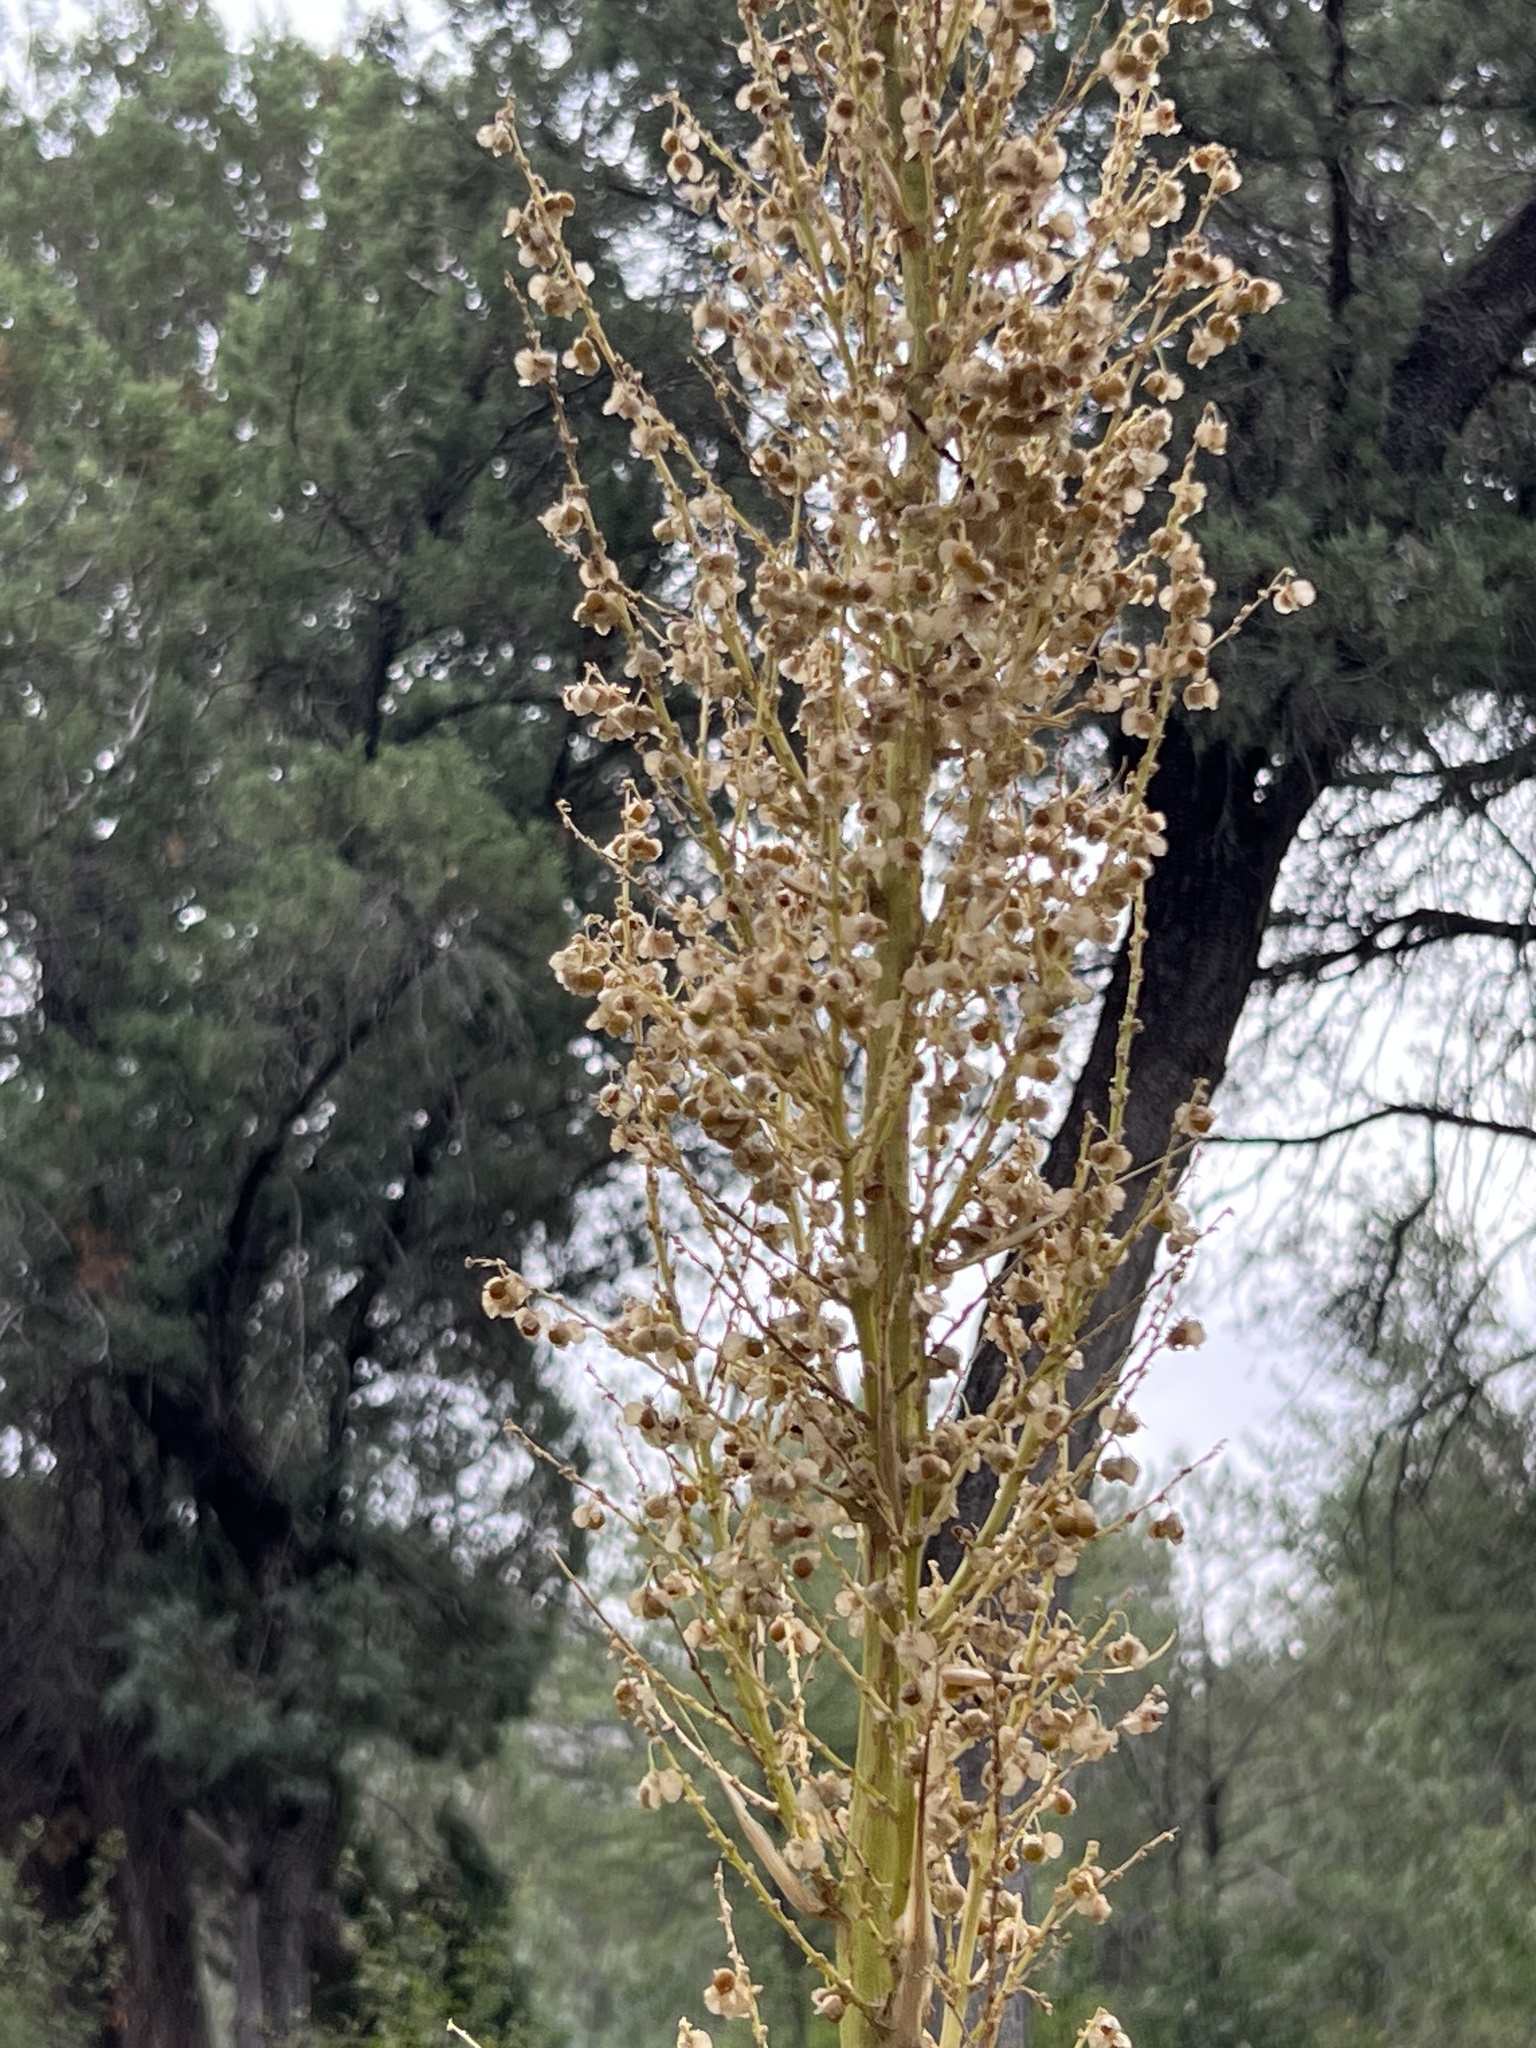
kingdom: Plantae
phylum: Tracheophyta
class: Liliopsida
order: Asparagales
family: Asparagaceae
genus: Nolina
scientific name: Nolina microcarpa
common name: Bear-grass
